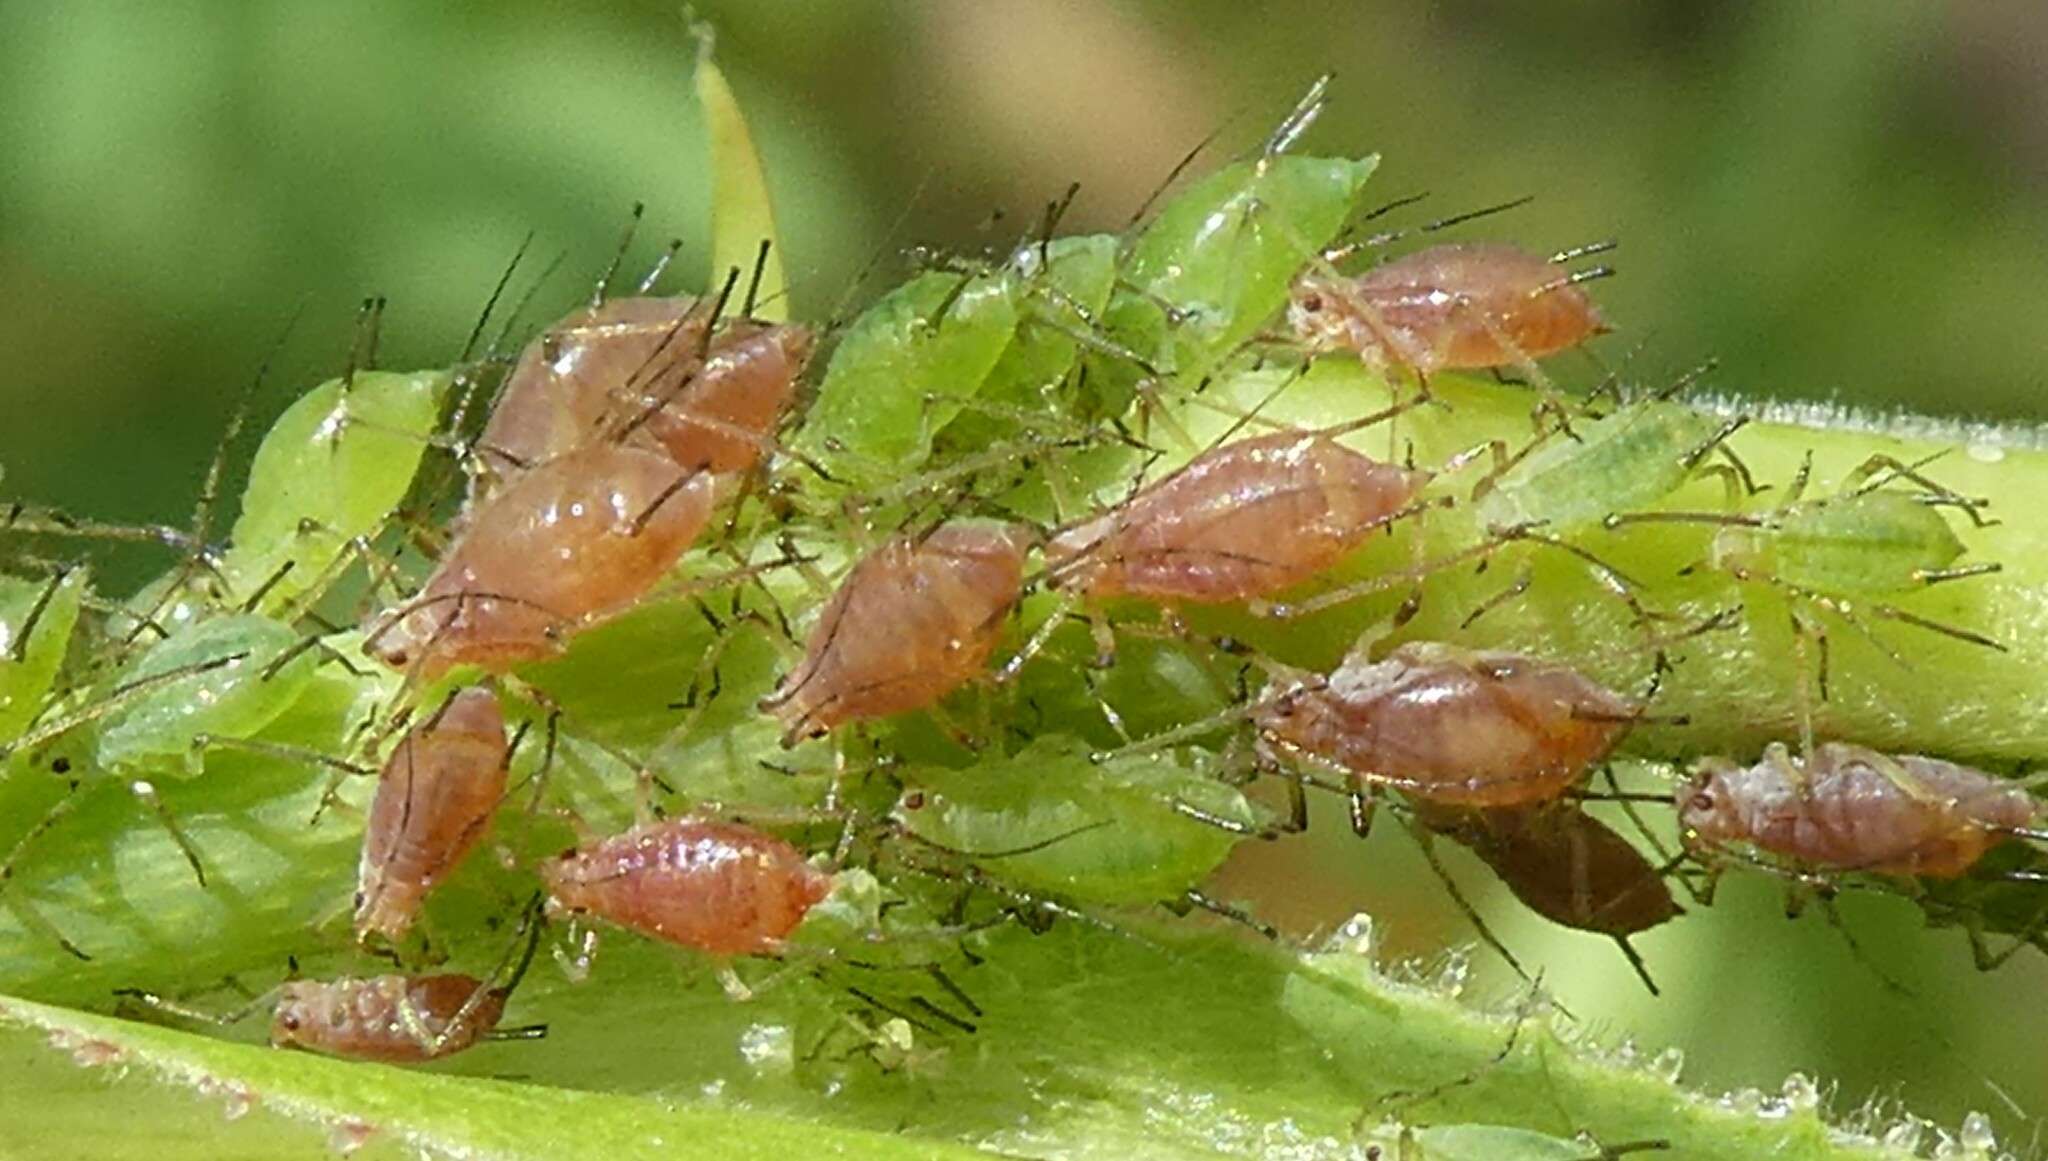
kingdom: Animalia
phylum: Arthropoda
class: Insecta
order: Hemiptera
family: Aphididae
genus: Macrosiphum
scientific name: Macrosiphum rosae
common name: Rose aphid
